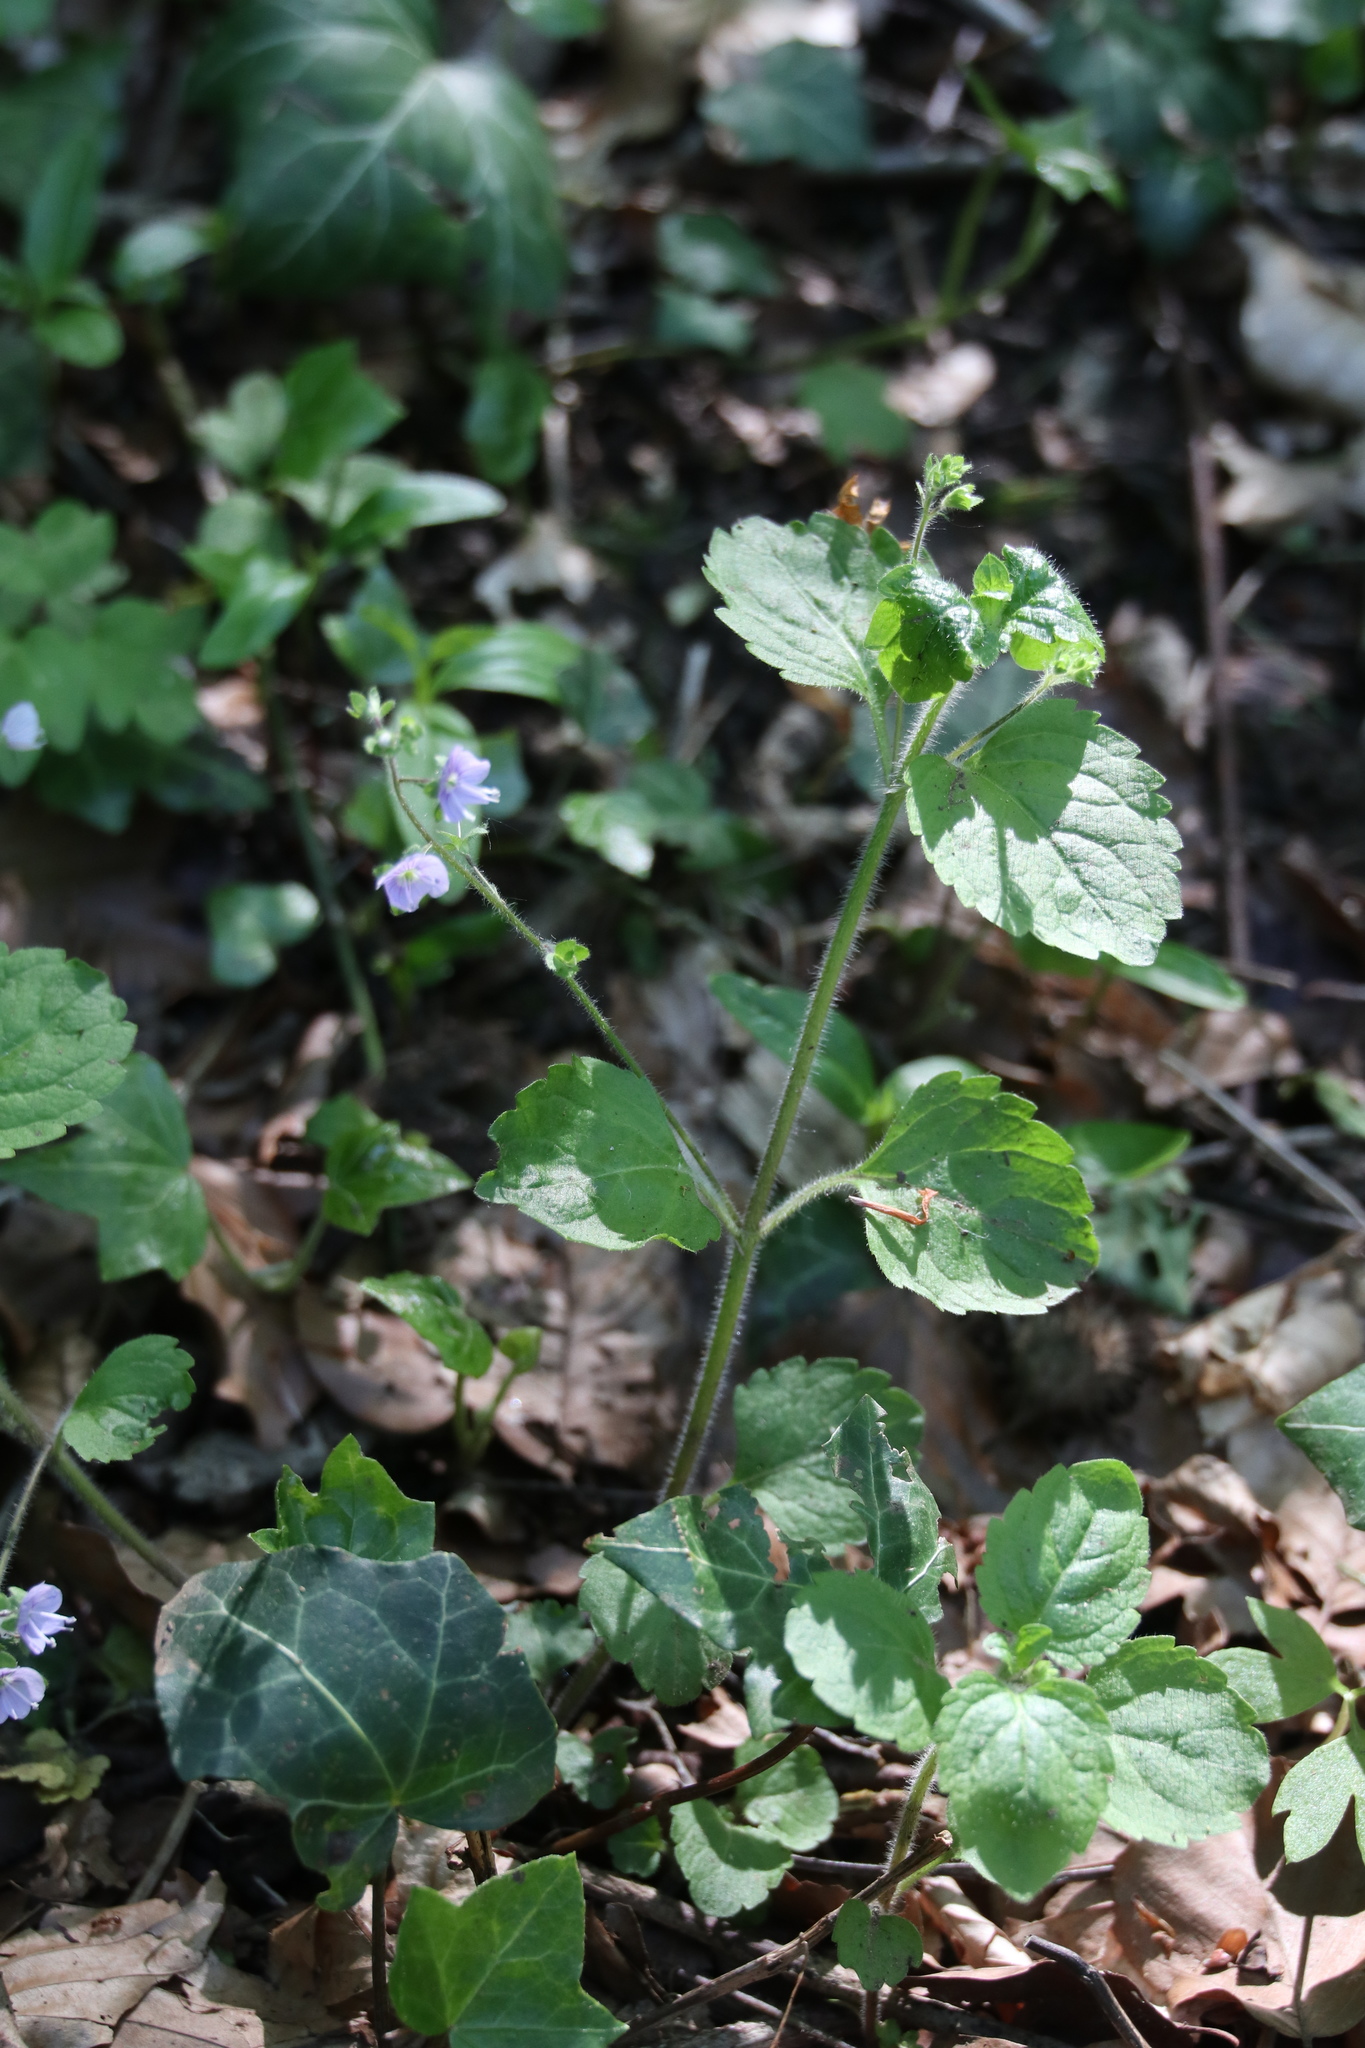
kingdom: Plantae
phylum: Tracheophyta
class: Magnoliopsida
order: Lamiales
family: Plantaginaceae
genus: Veronica
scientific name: Veronica montana
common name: Wood speedwell
